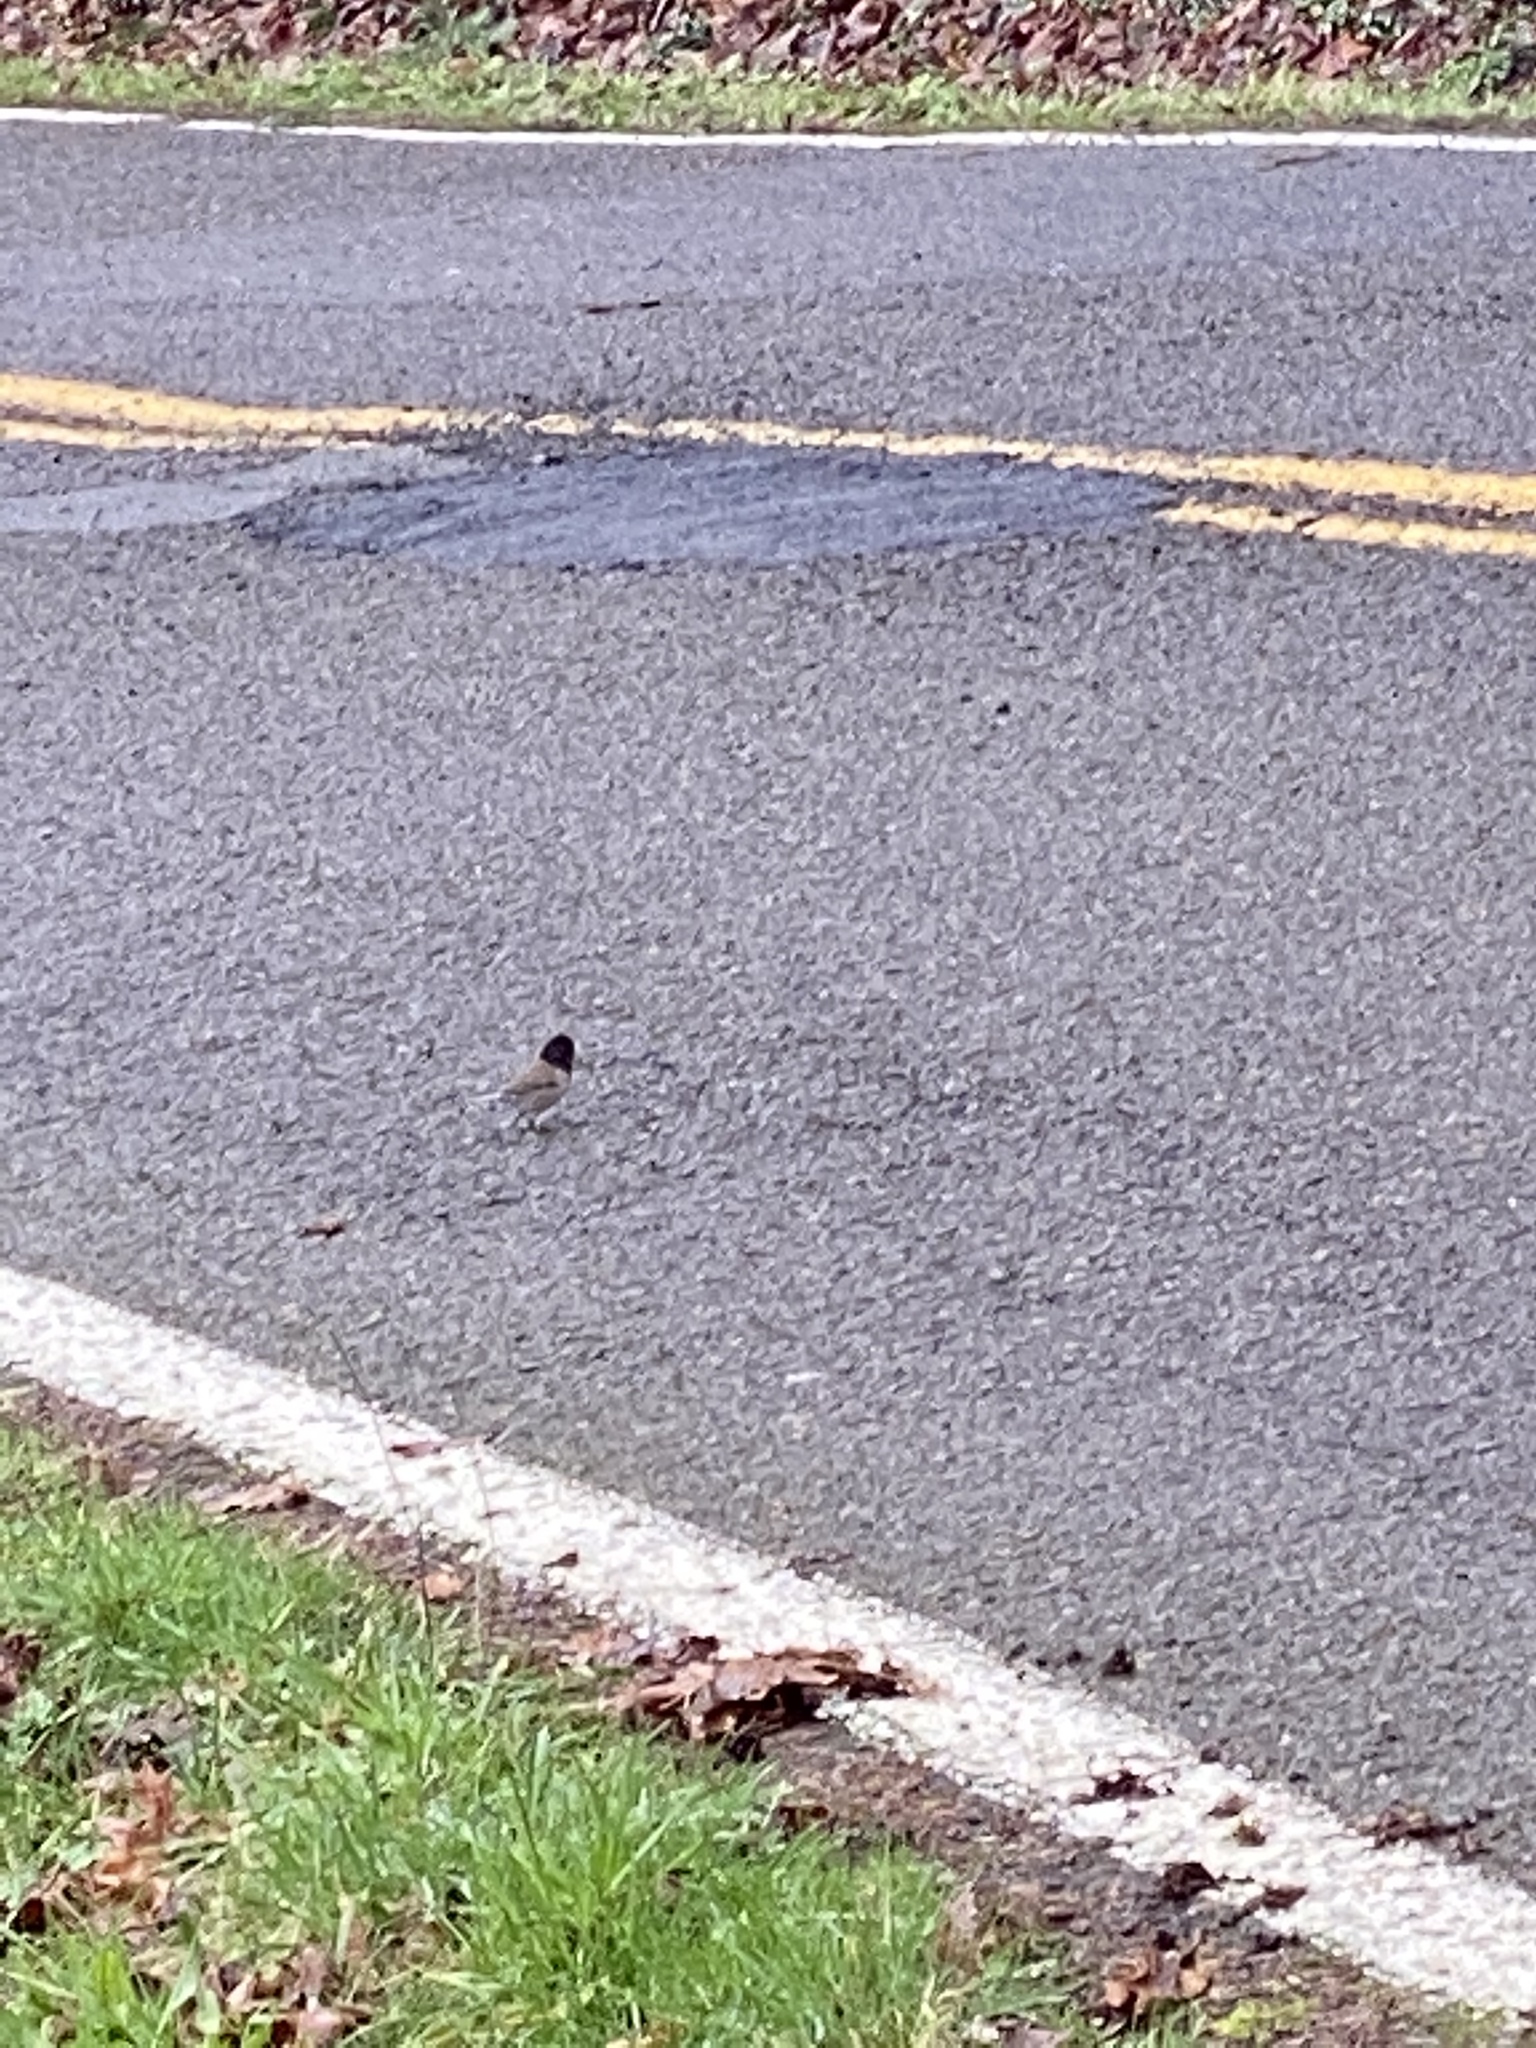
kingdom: Animalia
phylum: Chordata
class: Aves
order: Passeriformes
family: Passerellidae
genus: Junco
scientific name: Junco hyemalis
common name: Dark-eyed junco
